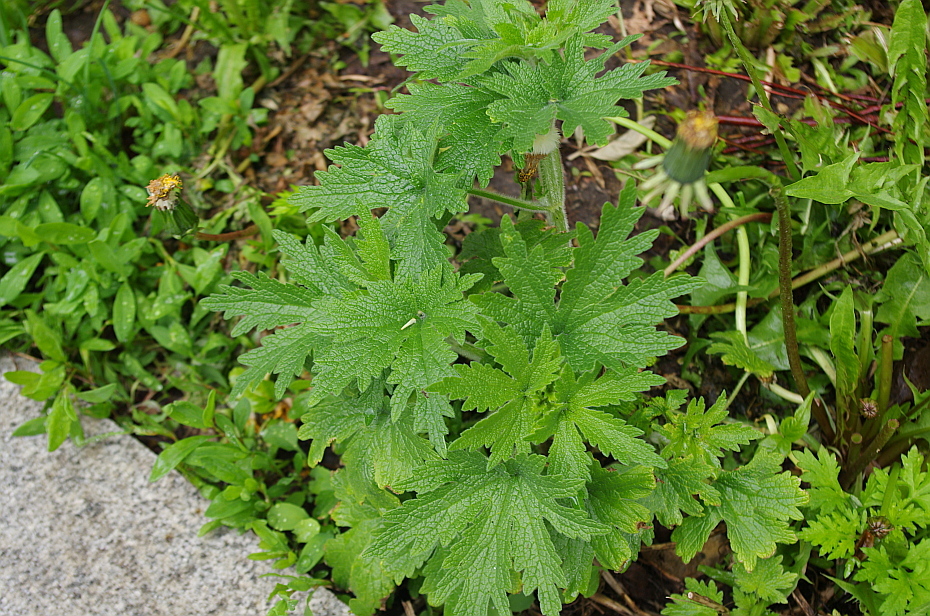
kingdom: Plantae
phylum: Tracheophyta
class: Magnoliopsida
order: Lamiales
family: Lamiaceae
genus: Leonurus
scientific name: Leonurus quinquelobatus
